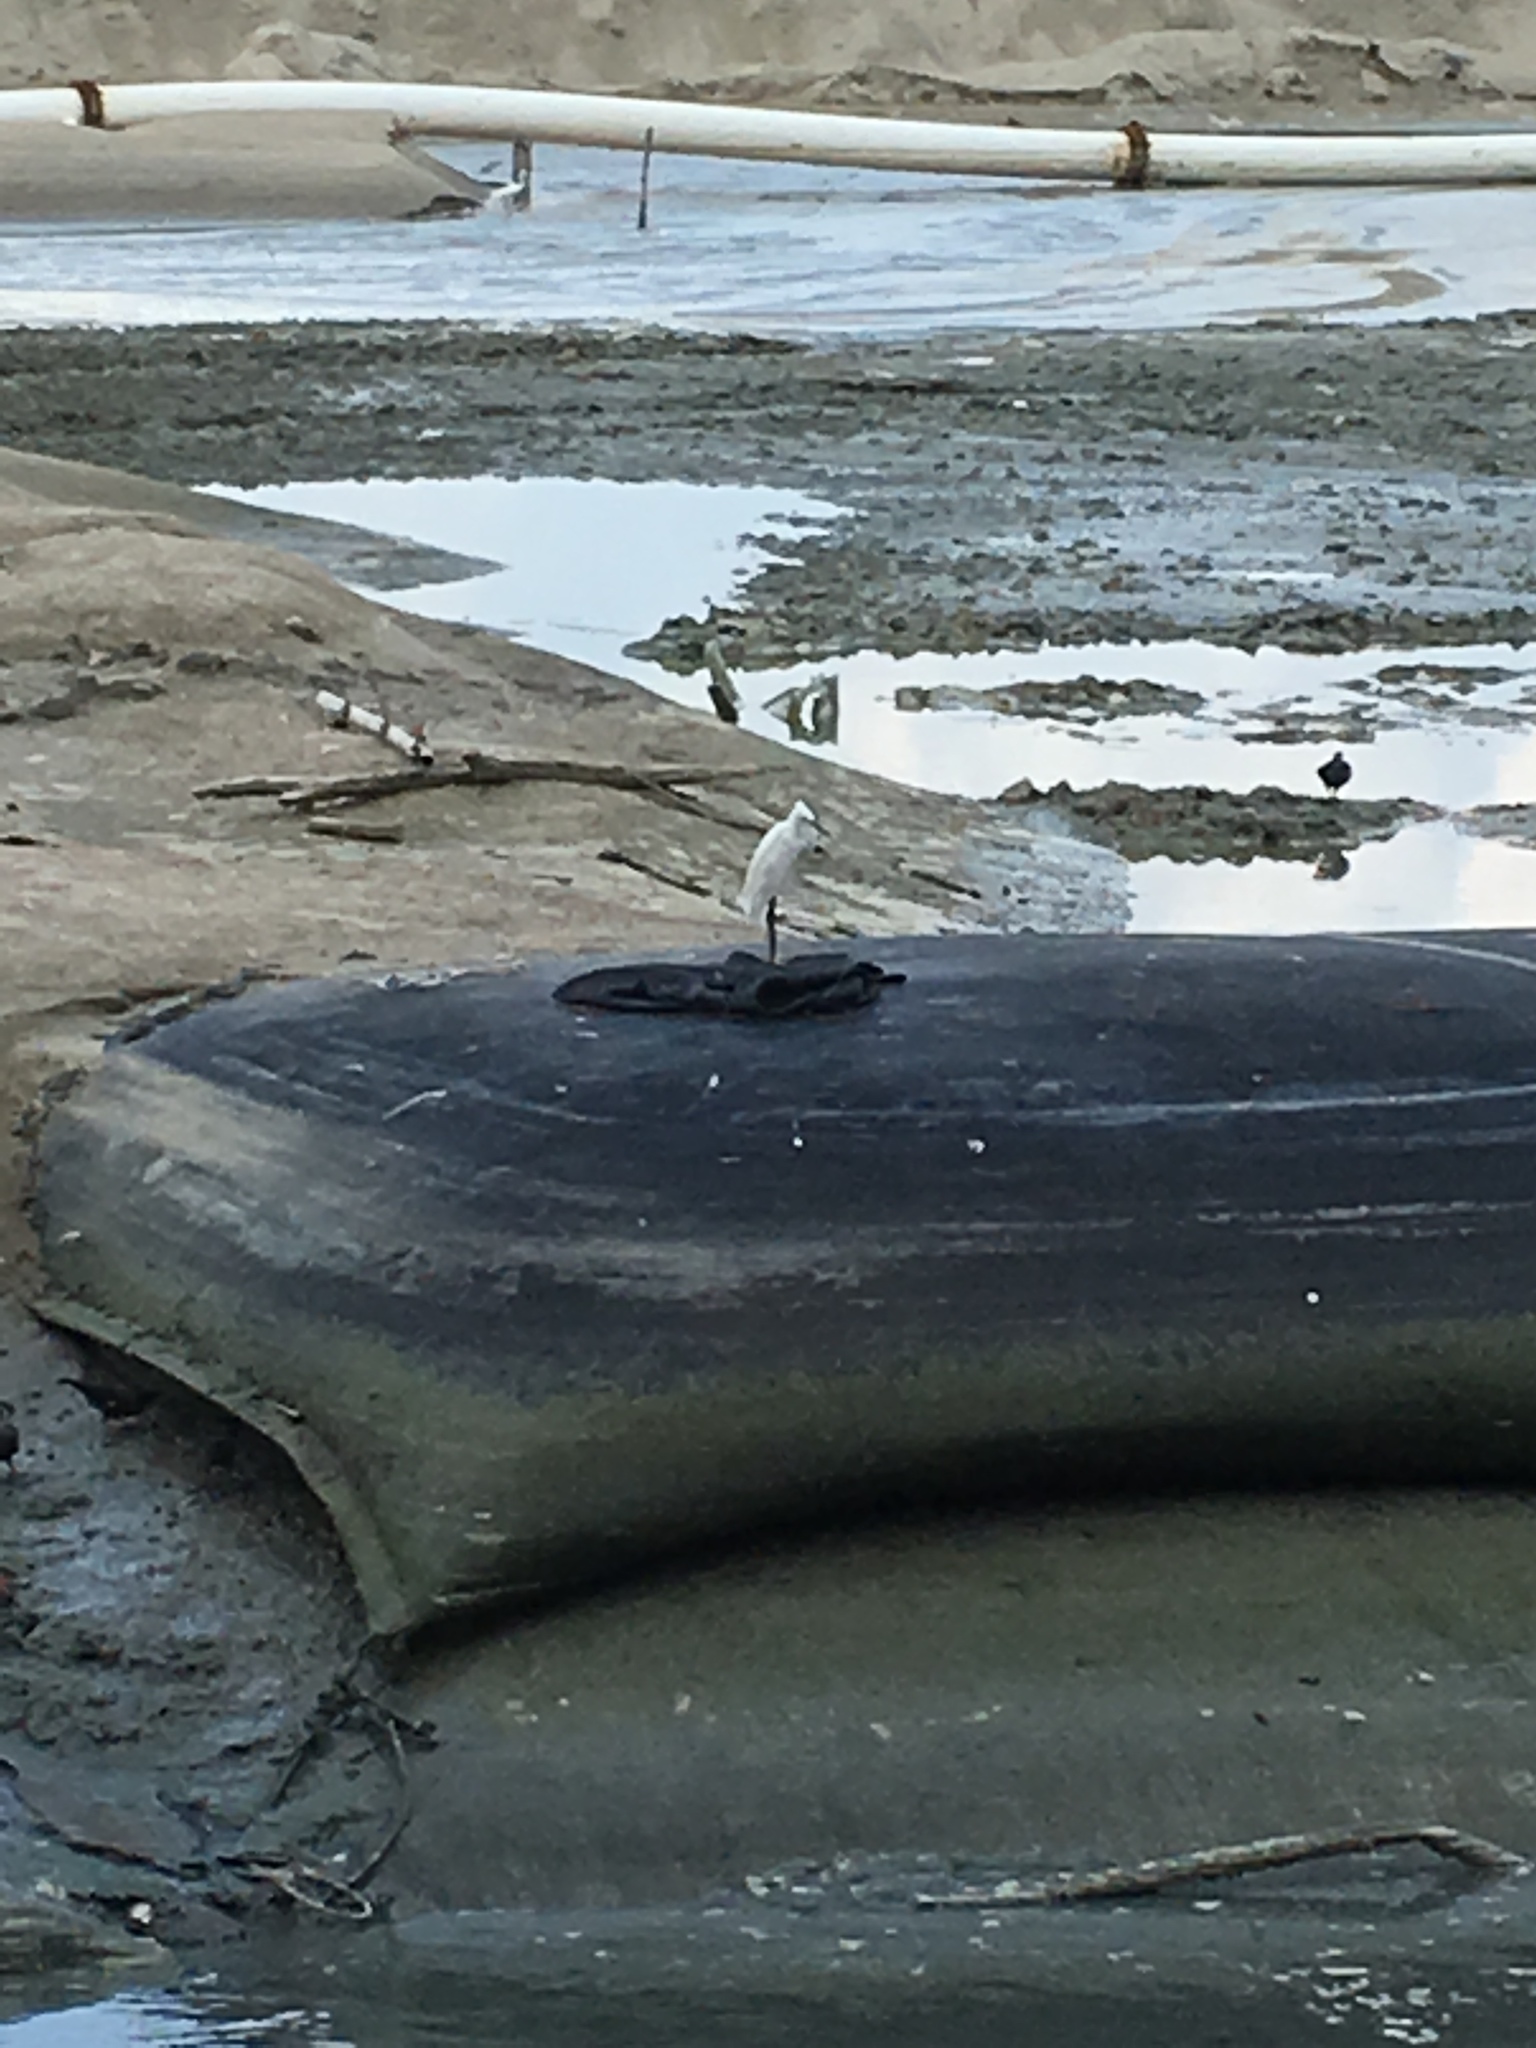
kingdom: Animalia
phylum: Chordata
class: Aves
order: Pelecaniformes
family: Ardeidae
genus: Egretta
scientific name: Egretta garzetta
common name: Little egret
